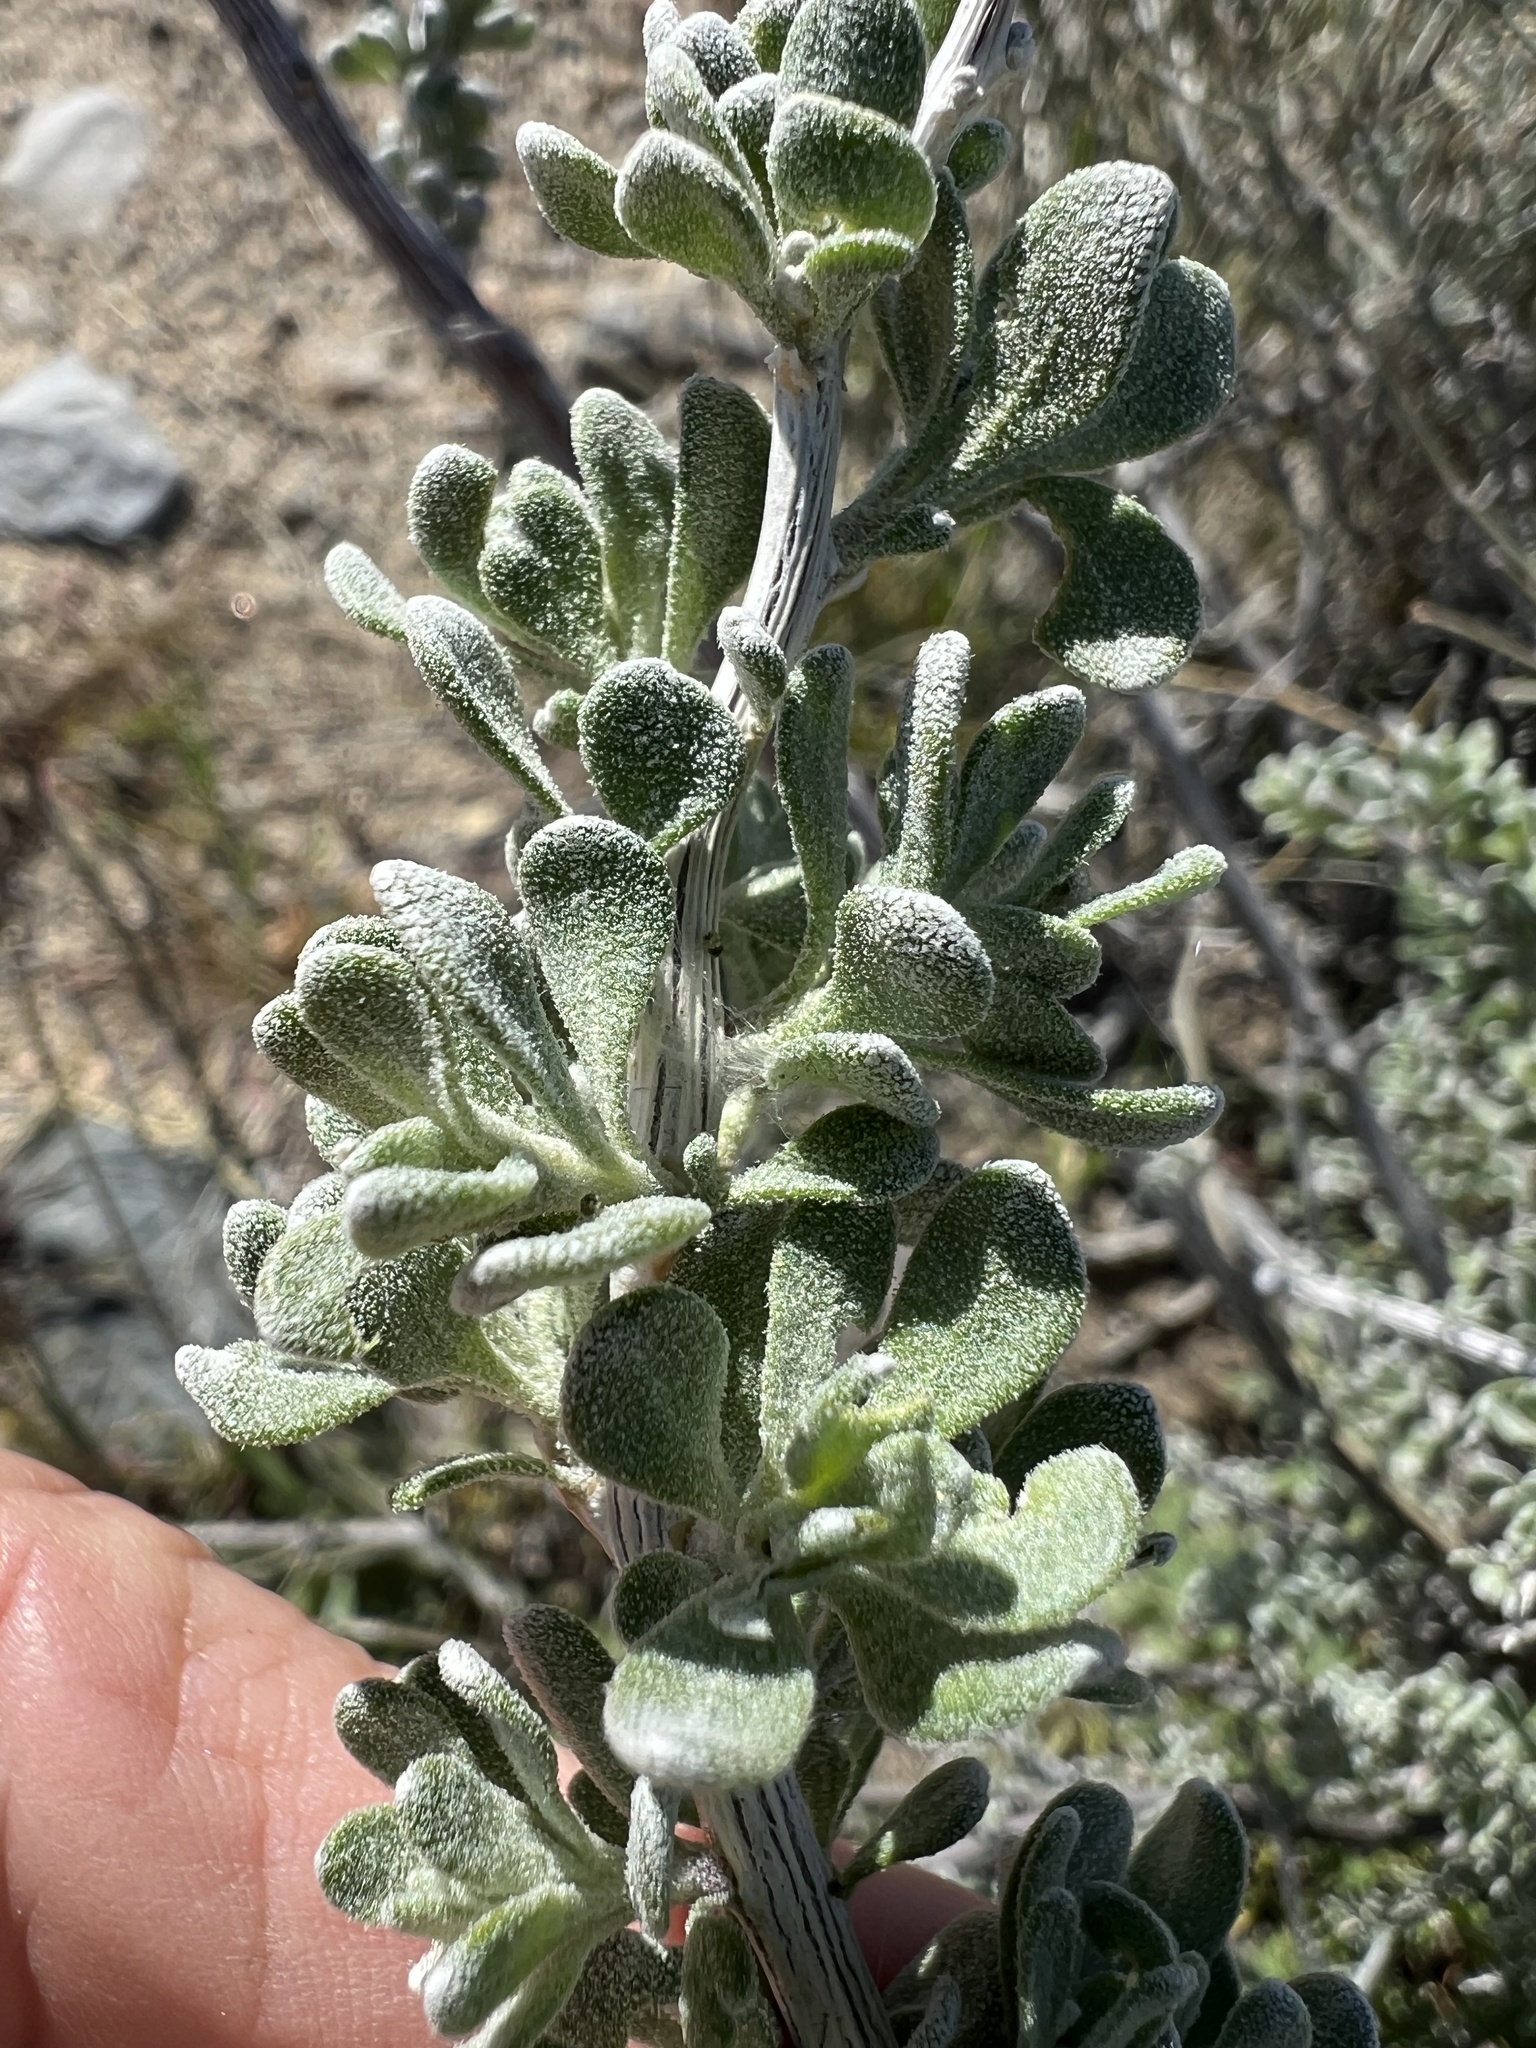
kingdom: Plantae
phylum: Tracheophyta
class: Magnoliopsida
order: Caryophyllales
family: Amaranthaceae
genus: Grayia
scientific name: Grayia spinosa
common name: Spiny hopsage
